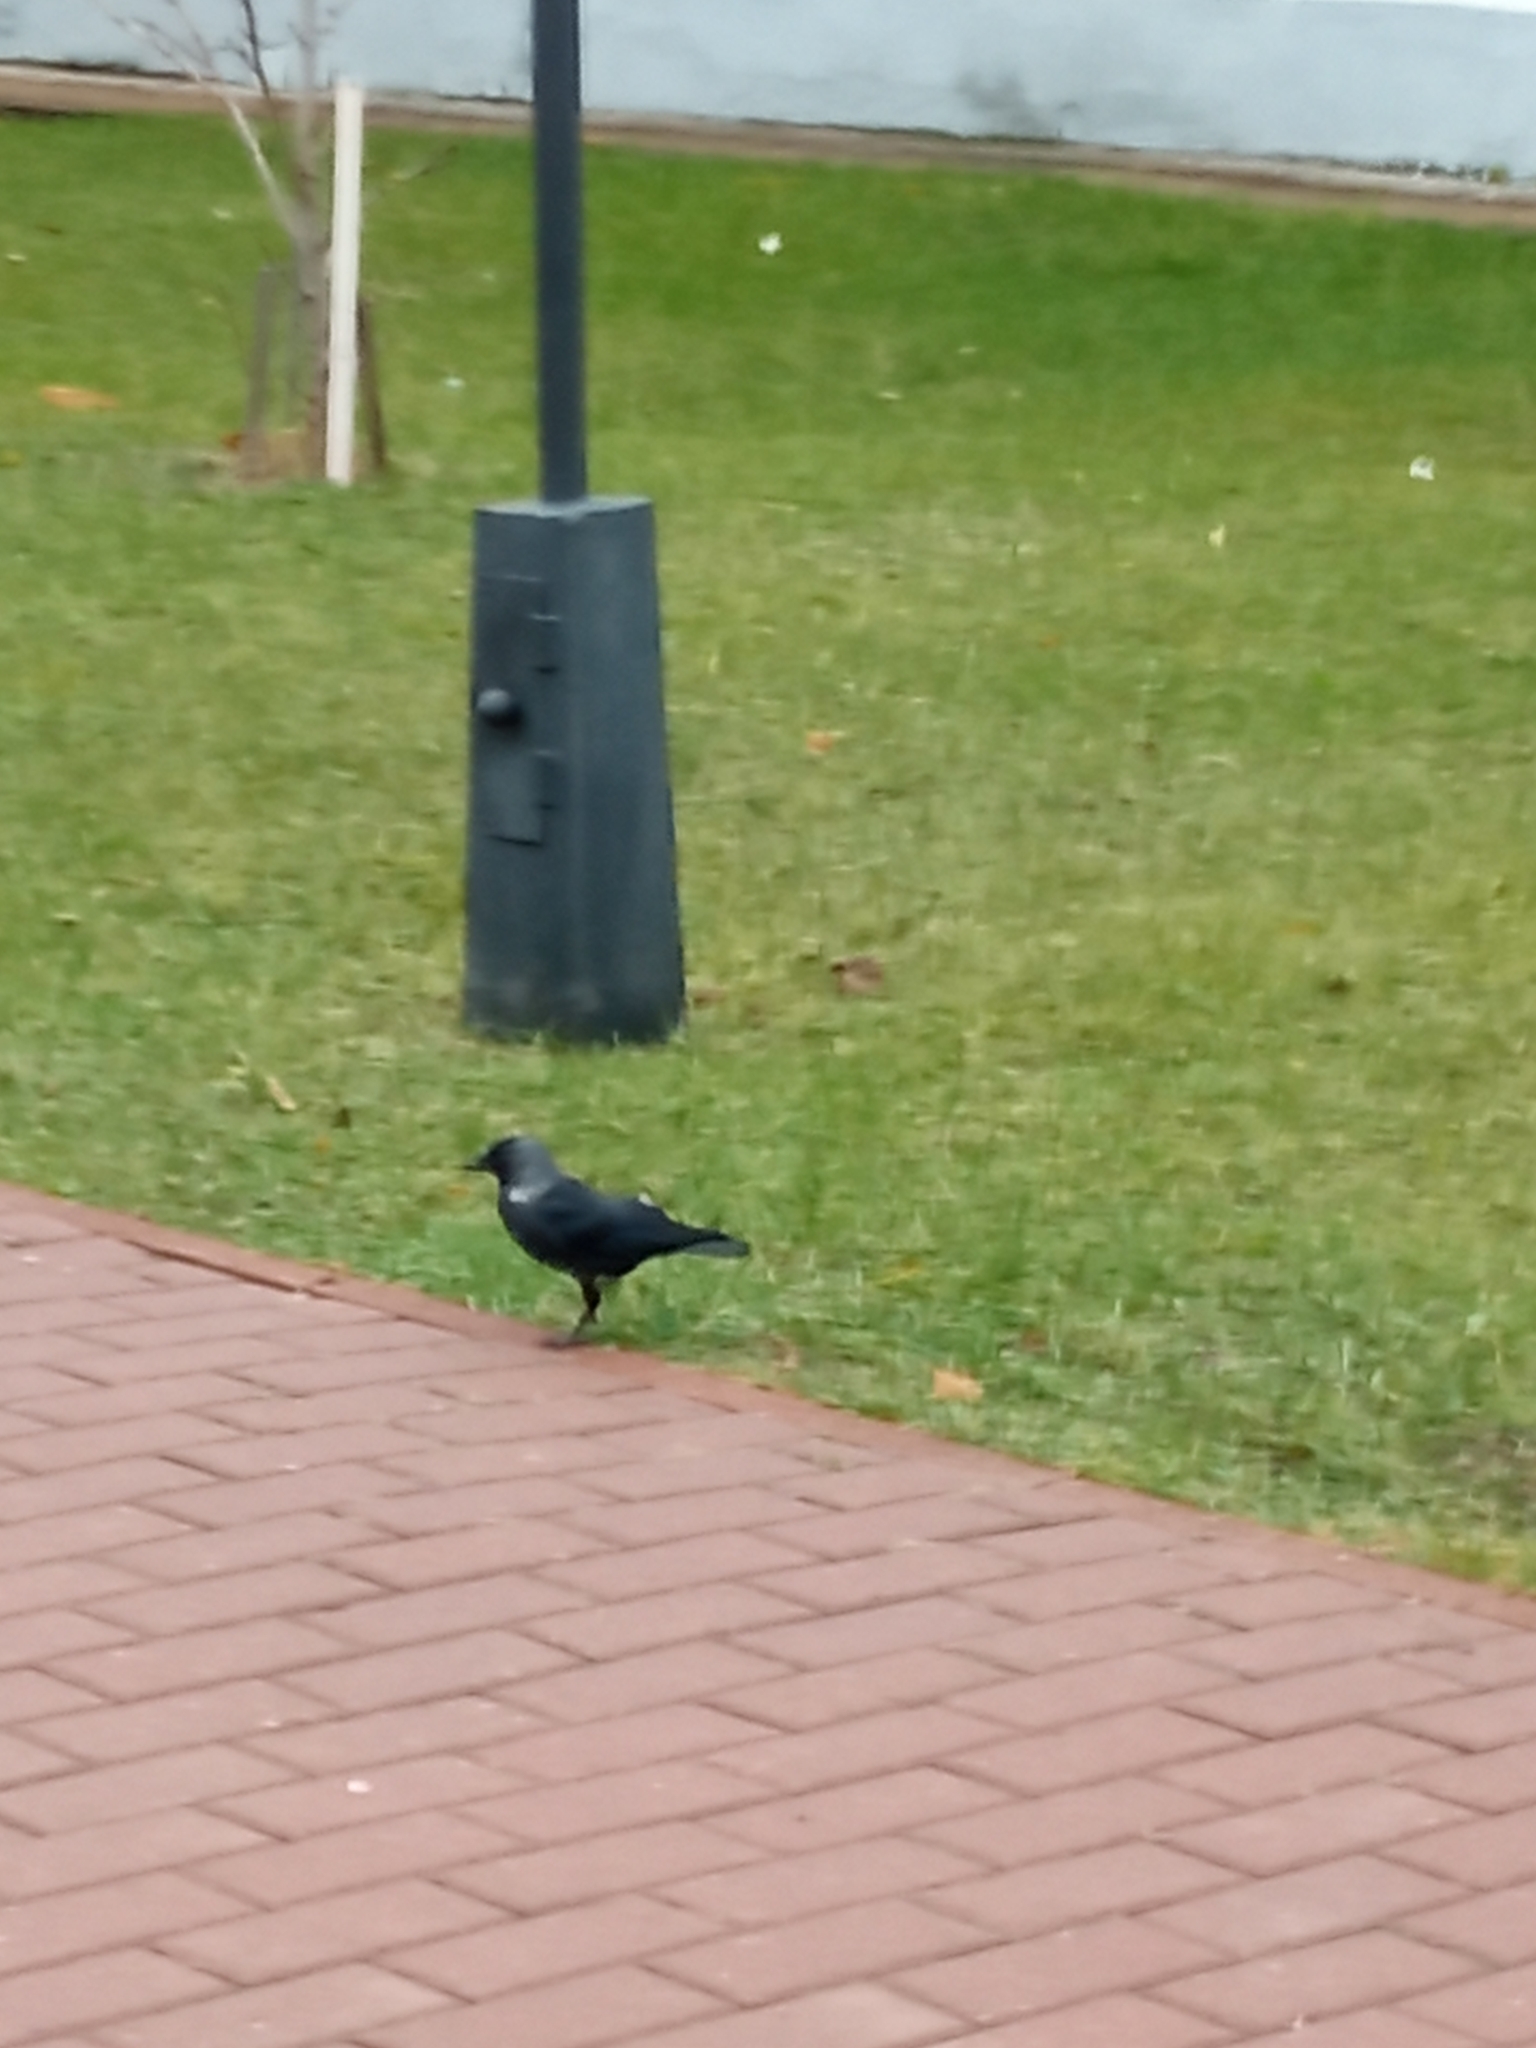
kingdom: Animalia
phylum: Chordata
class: Aves
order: Passeriformes
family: Corvidae
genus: Coloeus
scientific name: Coloeus monedula
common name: Western jackdaw
